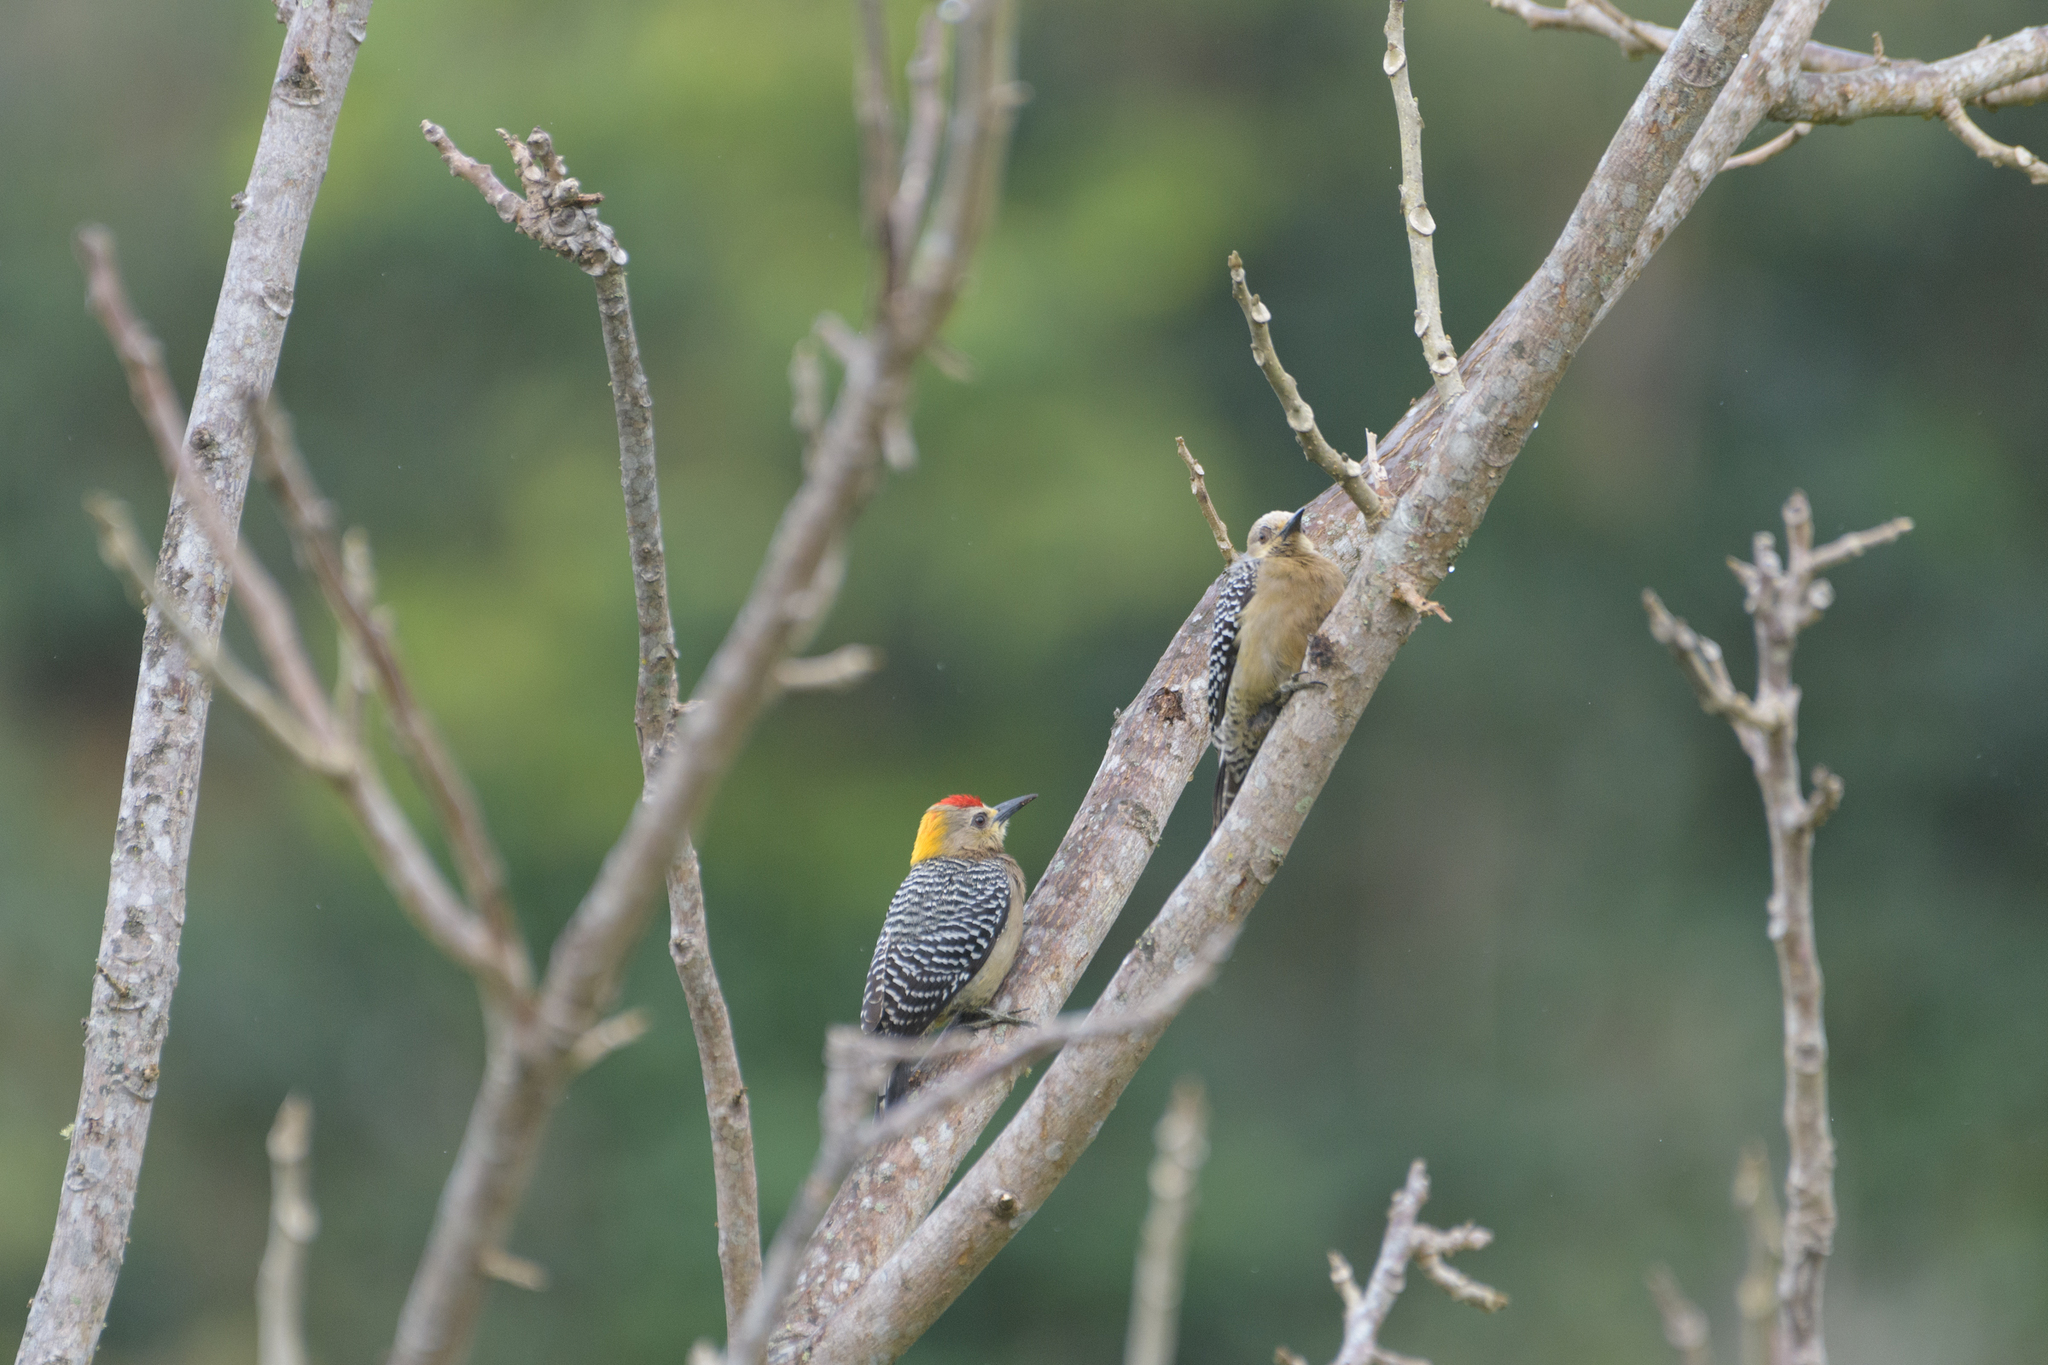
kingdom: Animalia
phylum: Chordata
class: Aves
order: Piciformes
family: Picidae
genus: Melanerpes
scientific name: Melanerpes hoffmannii
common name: Hoffmann's woodpecker
